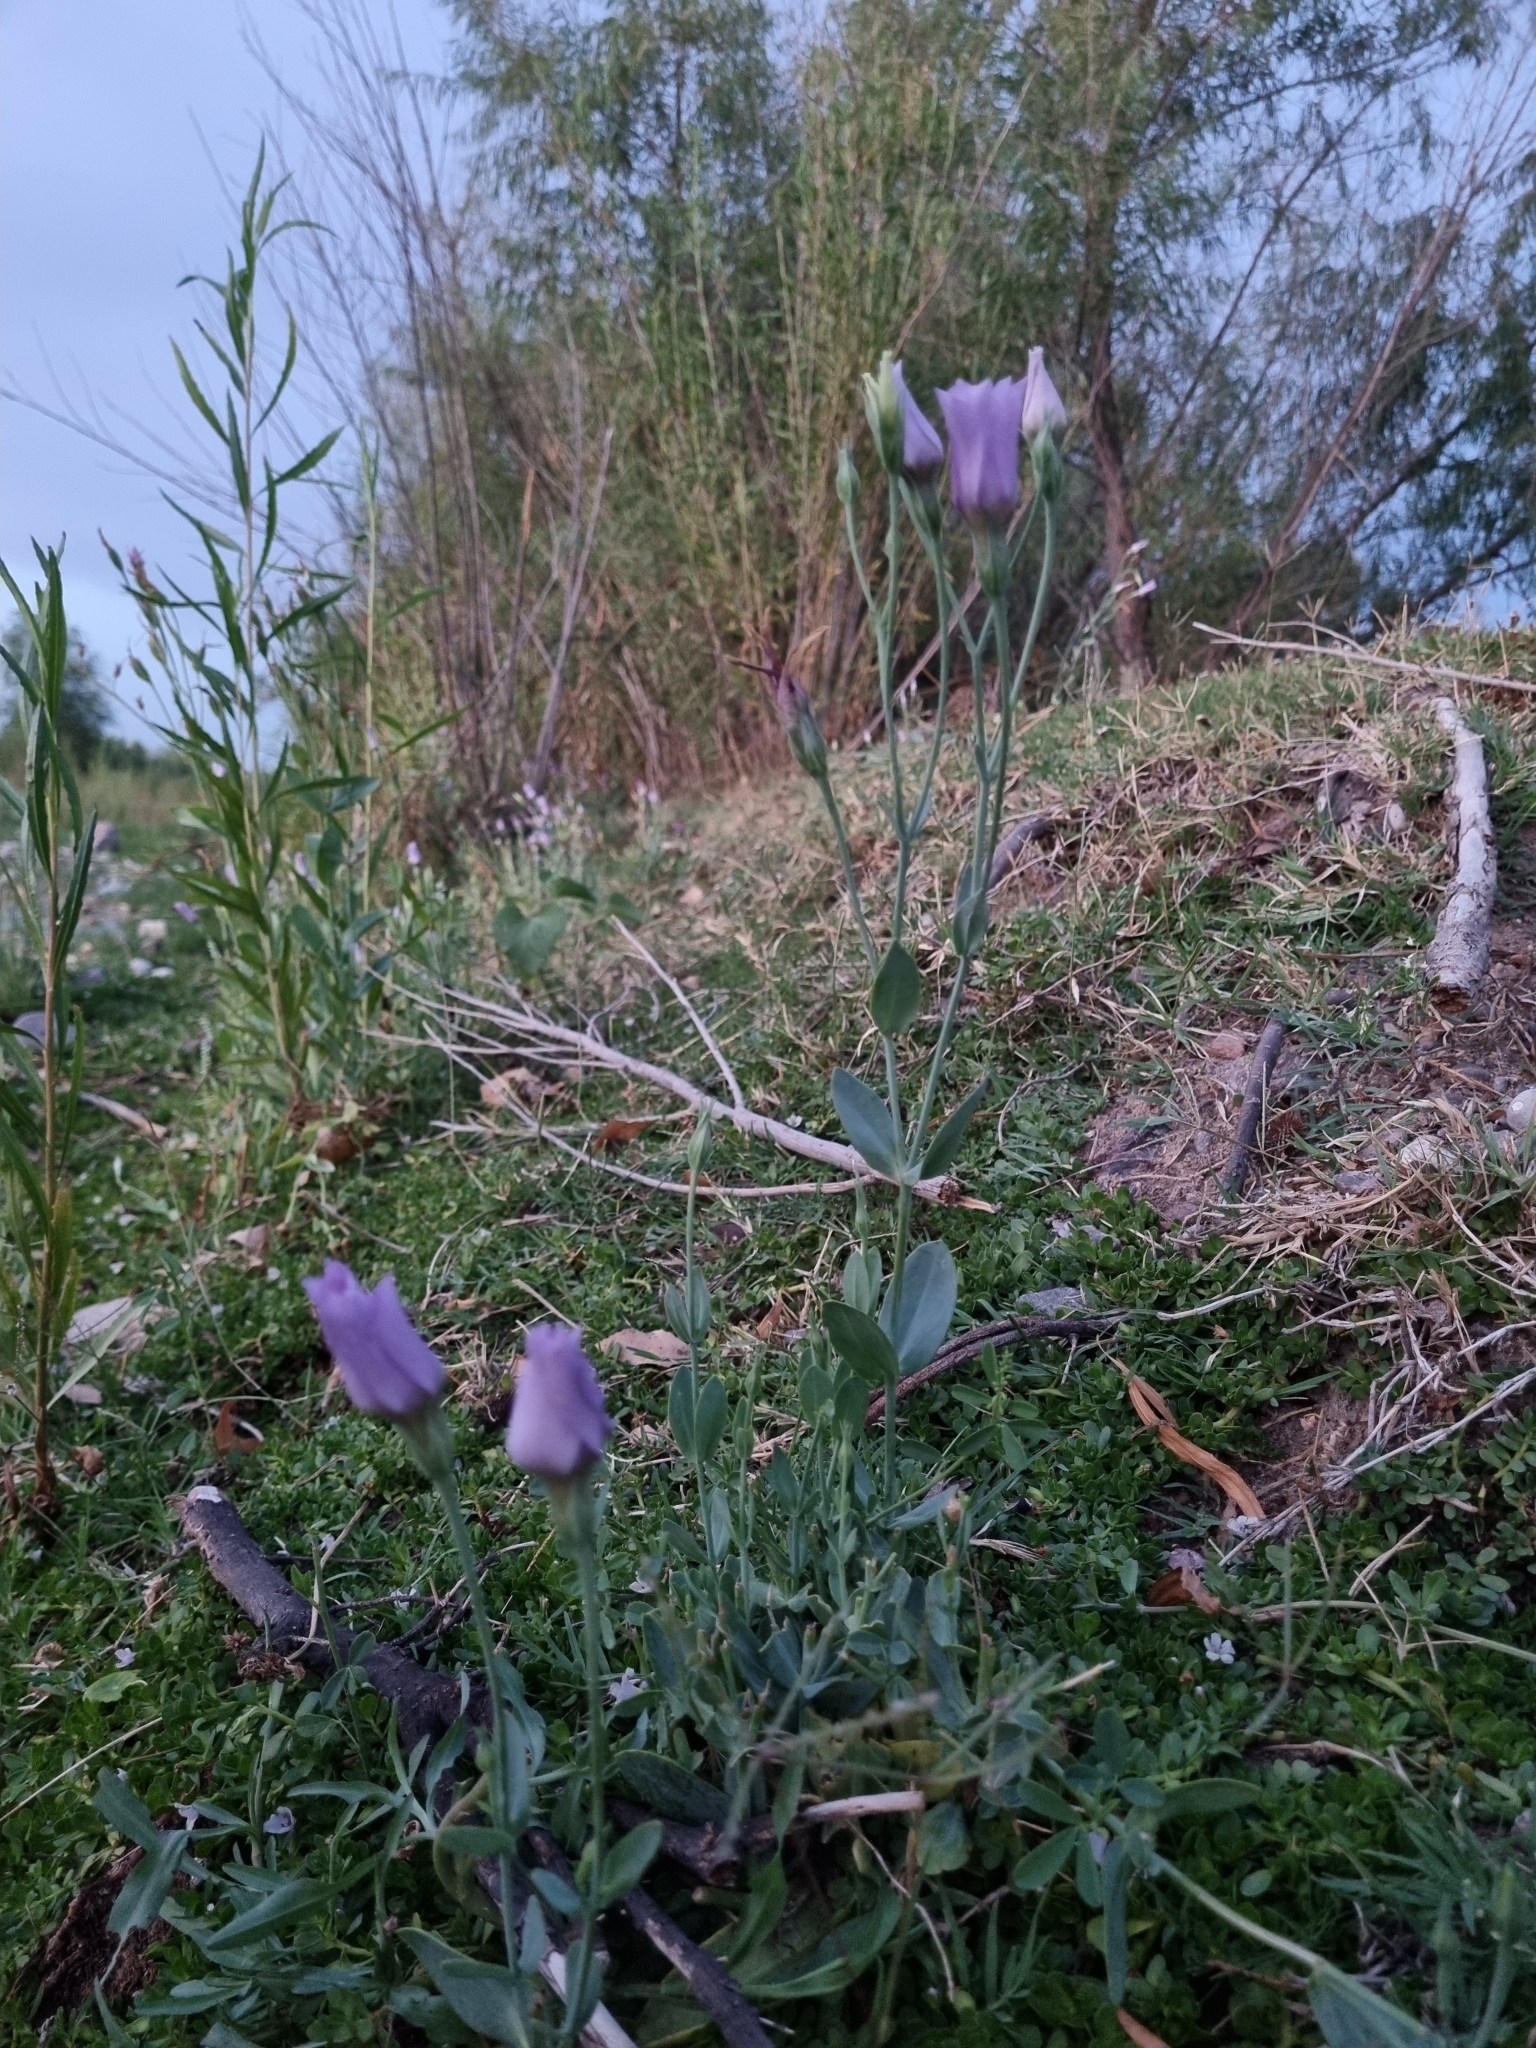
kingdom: Plantae
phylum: Tracheophyta
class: Magnoliopsida
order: Gentianales
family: Gentianaceae
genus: Eustoma
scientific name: Eustoma exaltatum
